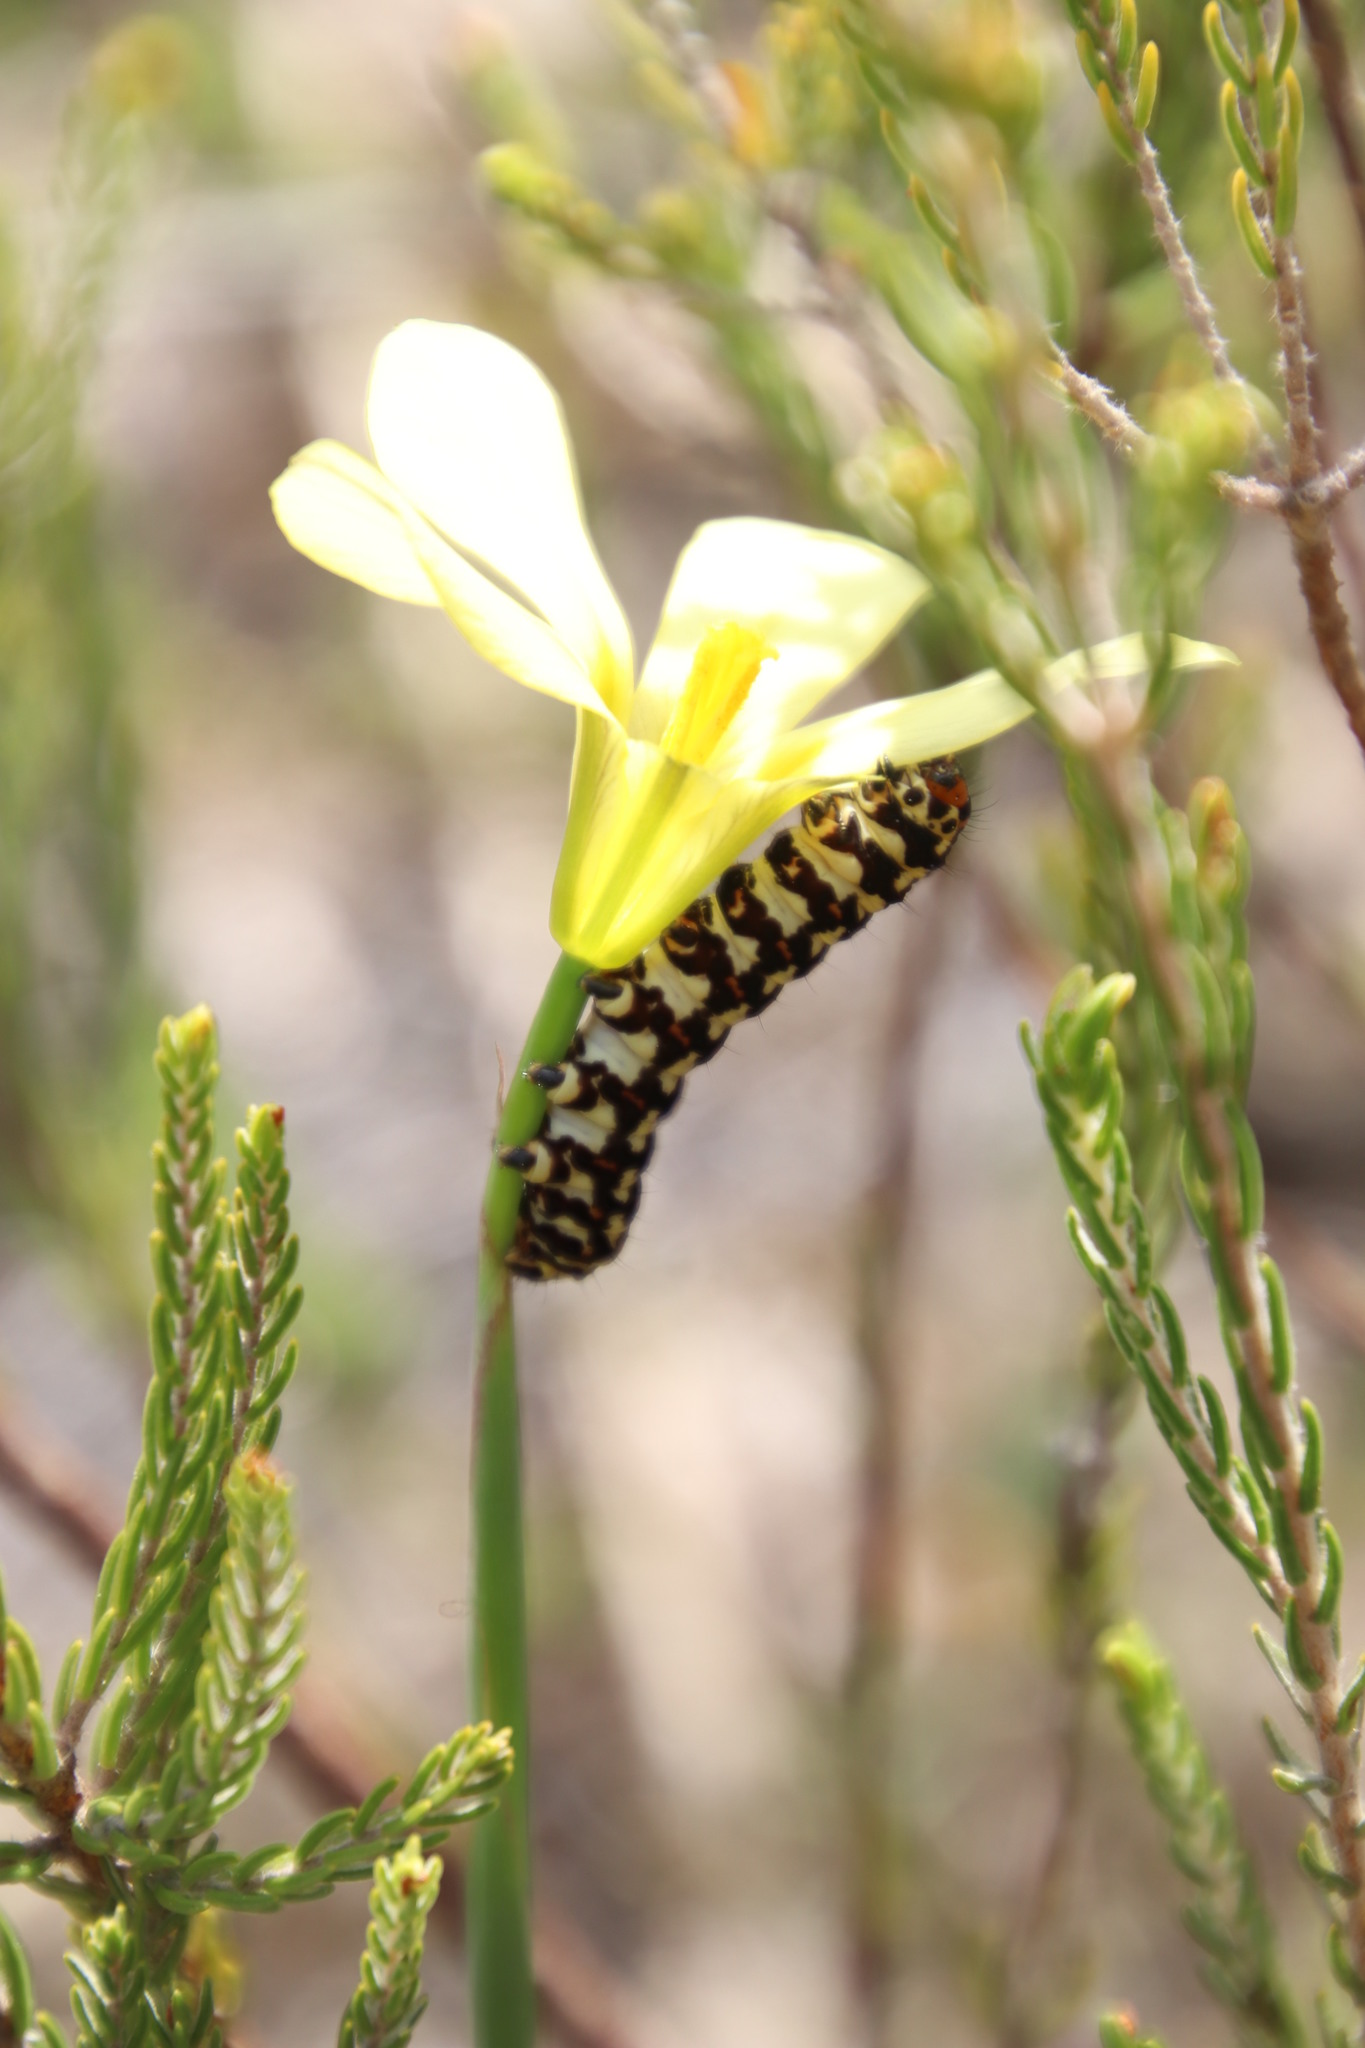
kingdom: Animalia
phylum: Arthropoda
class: Insecta
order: Lepidoptera
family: Noctuidae
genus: Diaphone
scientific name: Diaphone eumela
